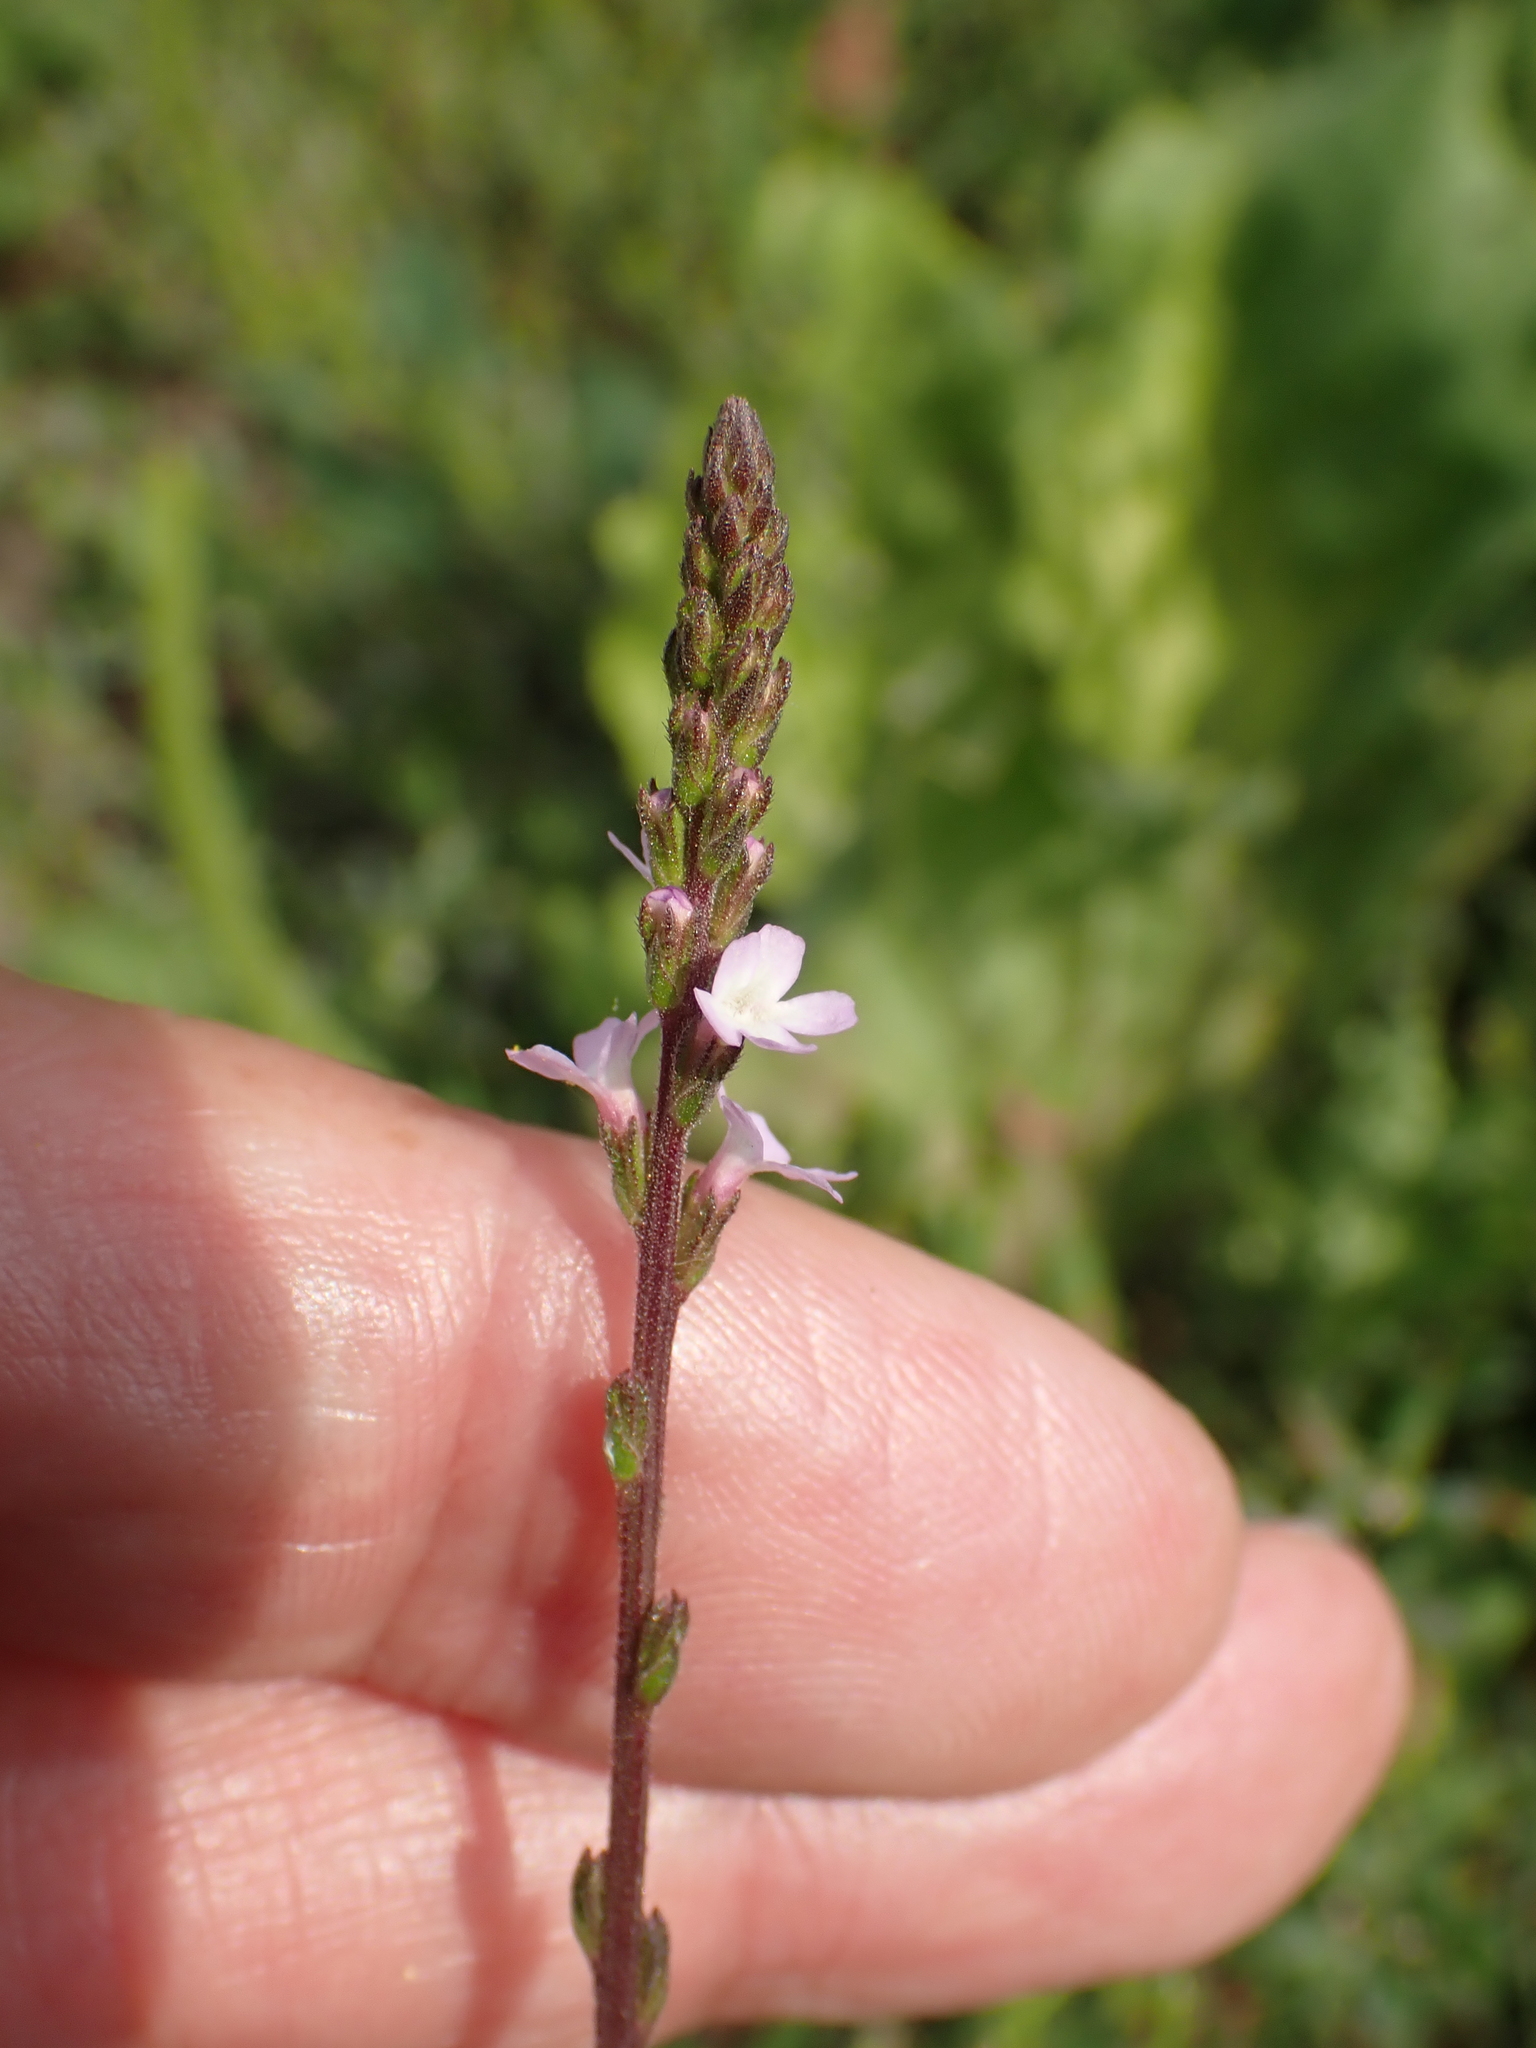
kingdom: Plantae
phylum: Tracheophyta
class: Magnoliopsida
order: Lamiales
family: Verbenaceae
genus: Verbena
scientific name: Verbena officinalis
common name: Vervain
